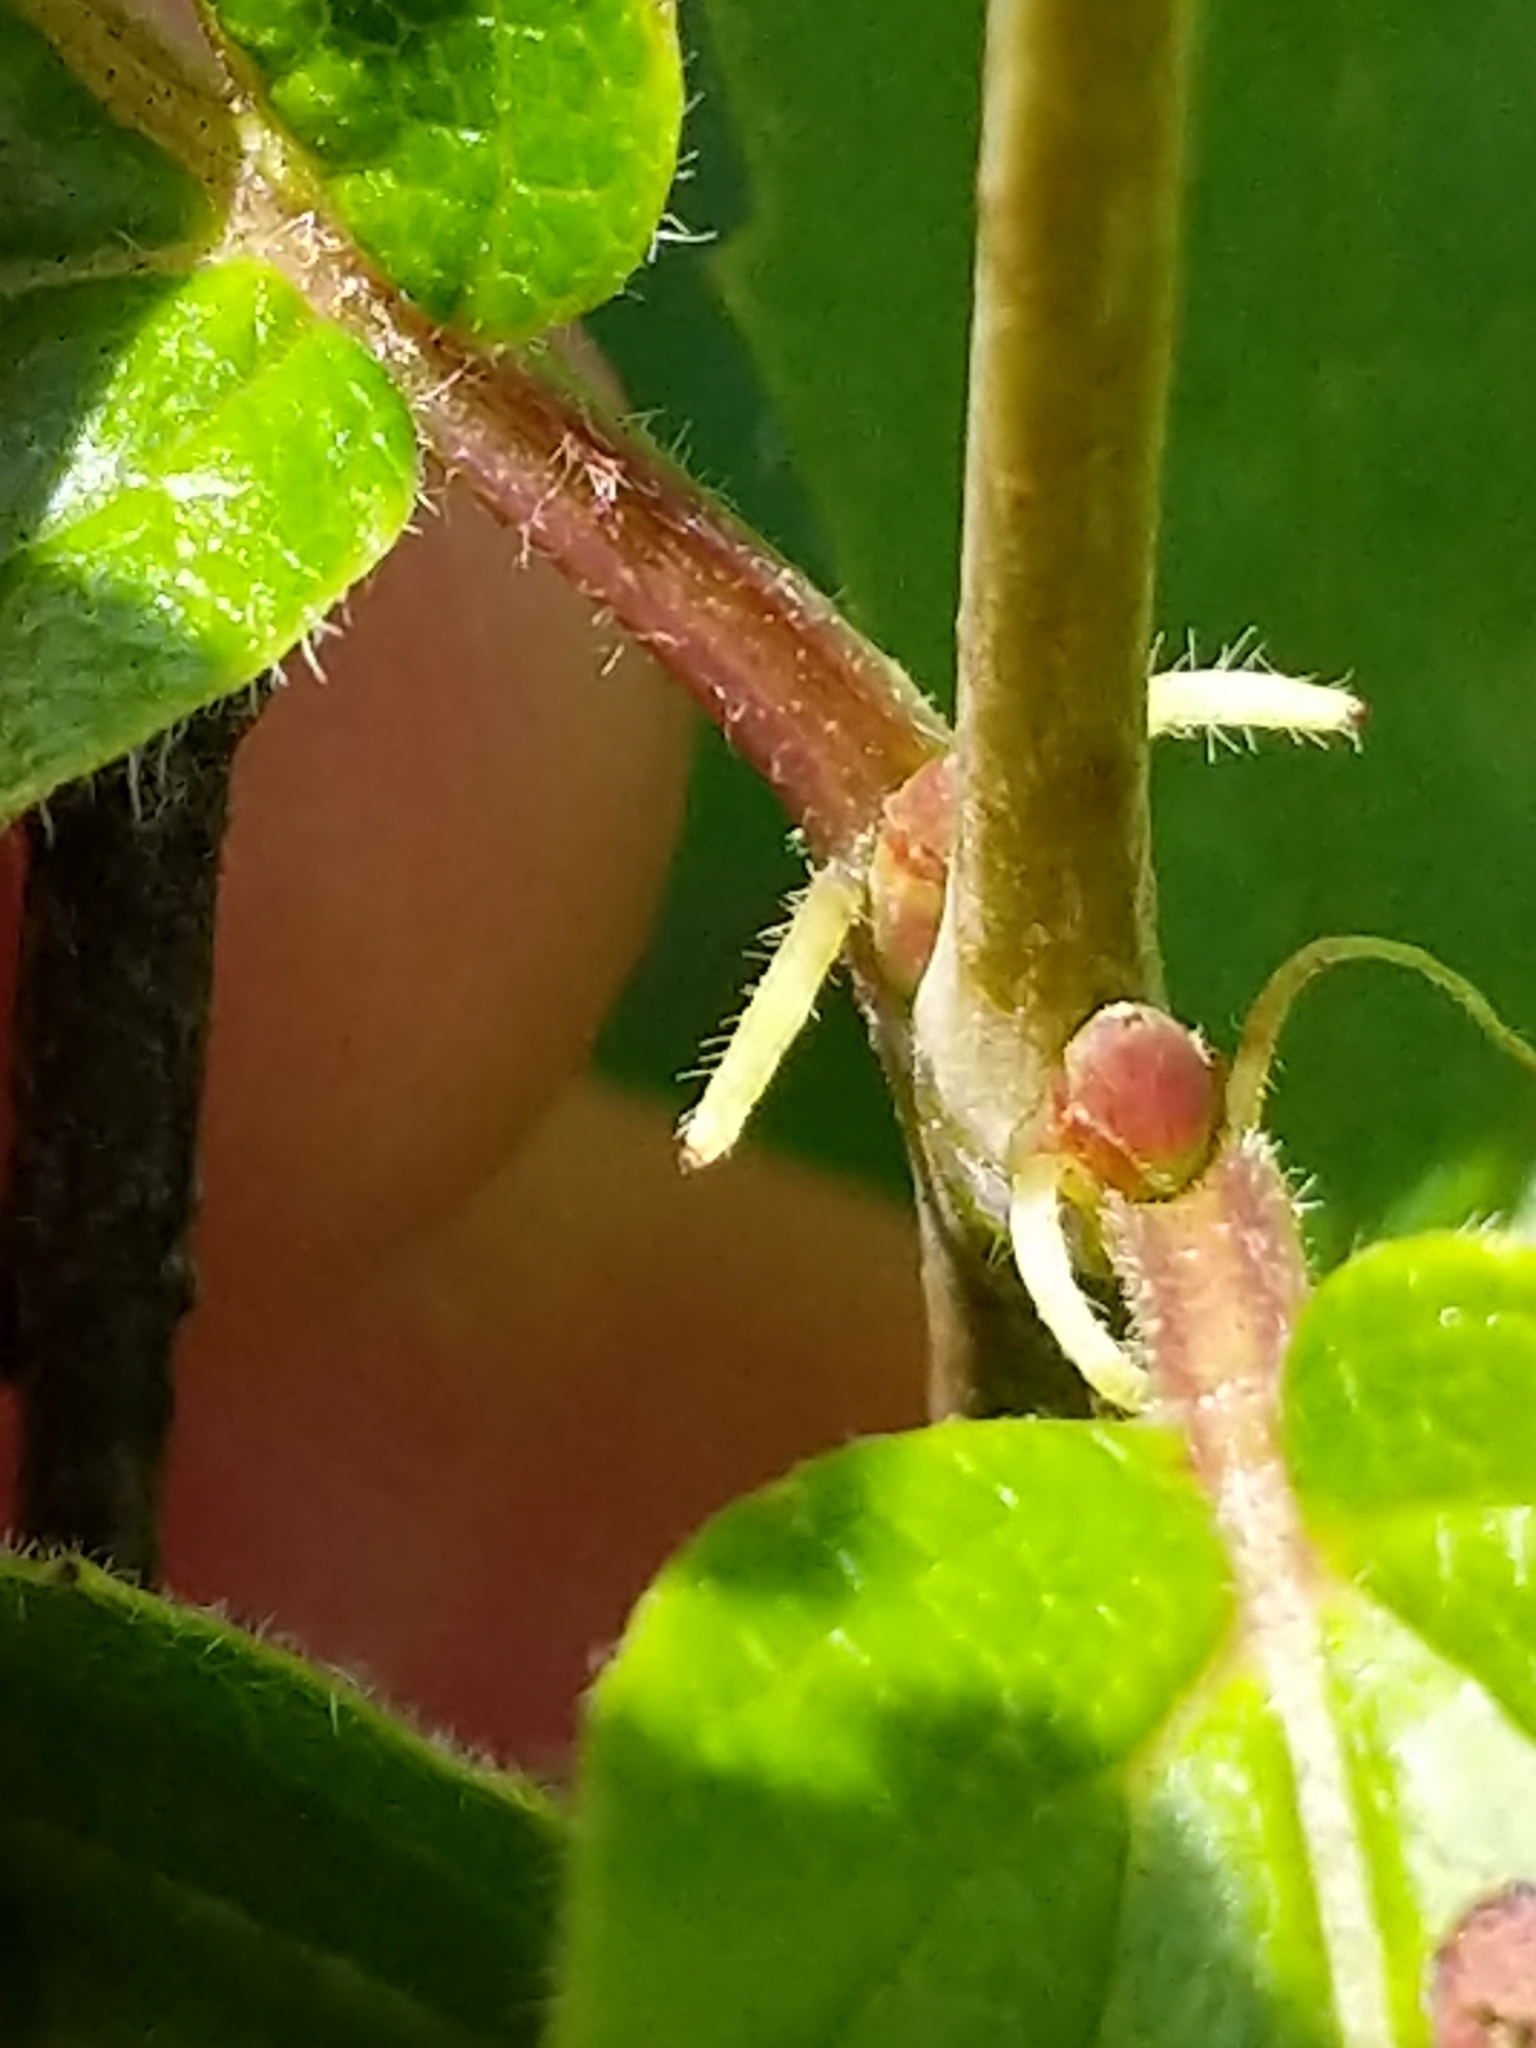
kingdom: Plantae
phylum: Tracheophyta
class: Magnoliopsida
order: Dipsacales
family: Viburnaceae
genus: Viburnum
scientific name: Viburnum rafinesqueanum
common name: Downy arrow-wood
